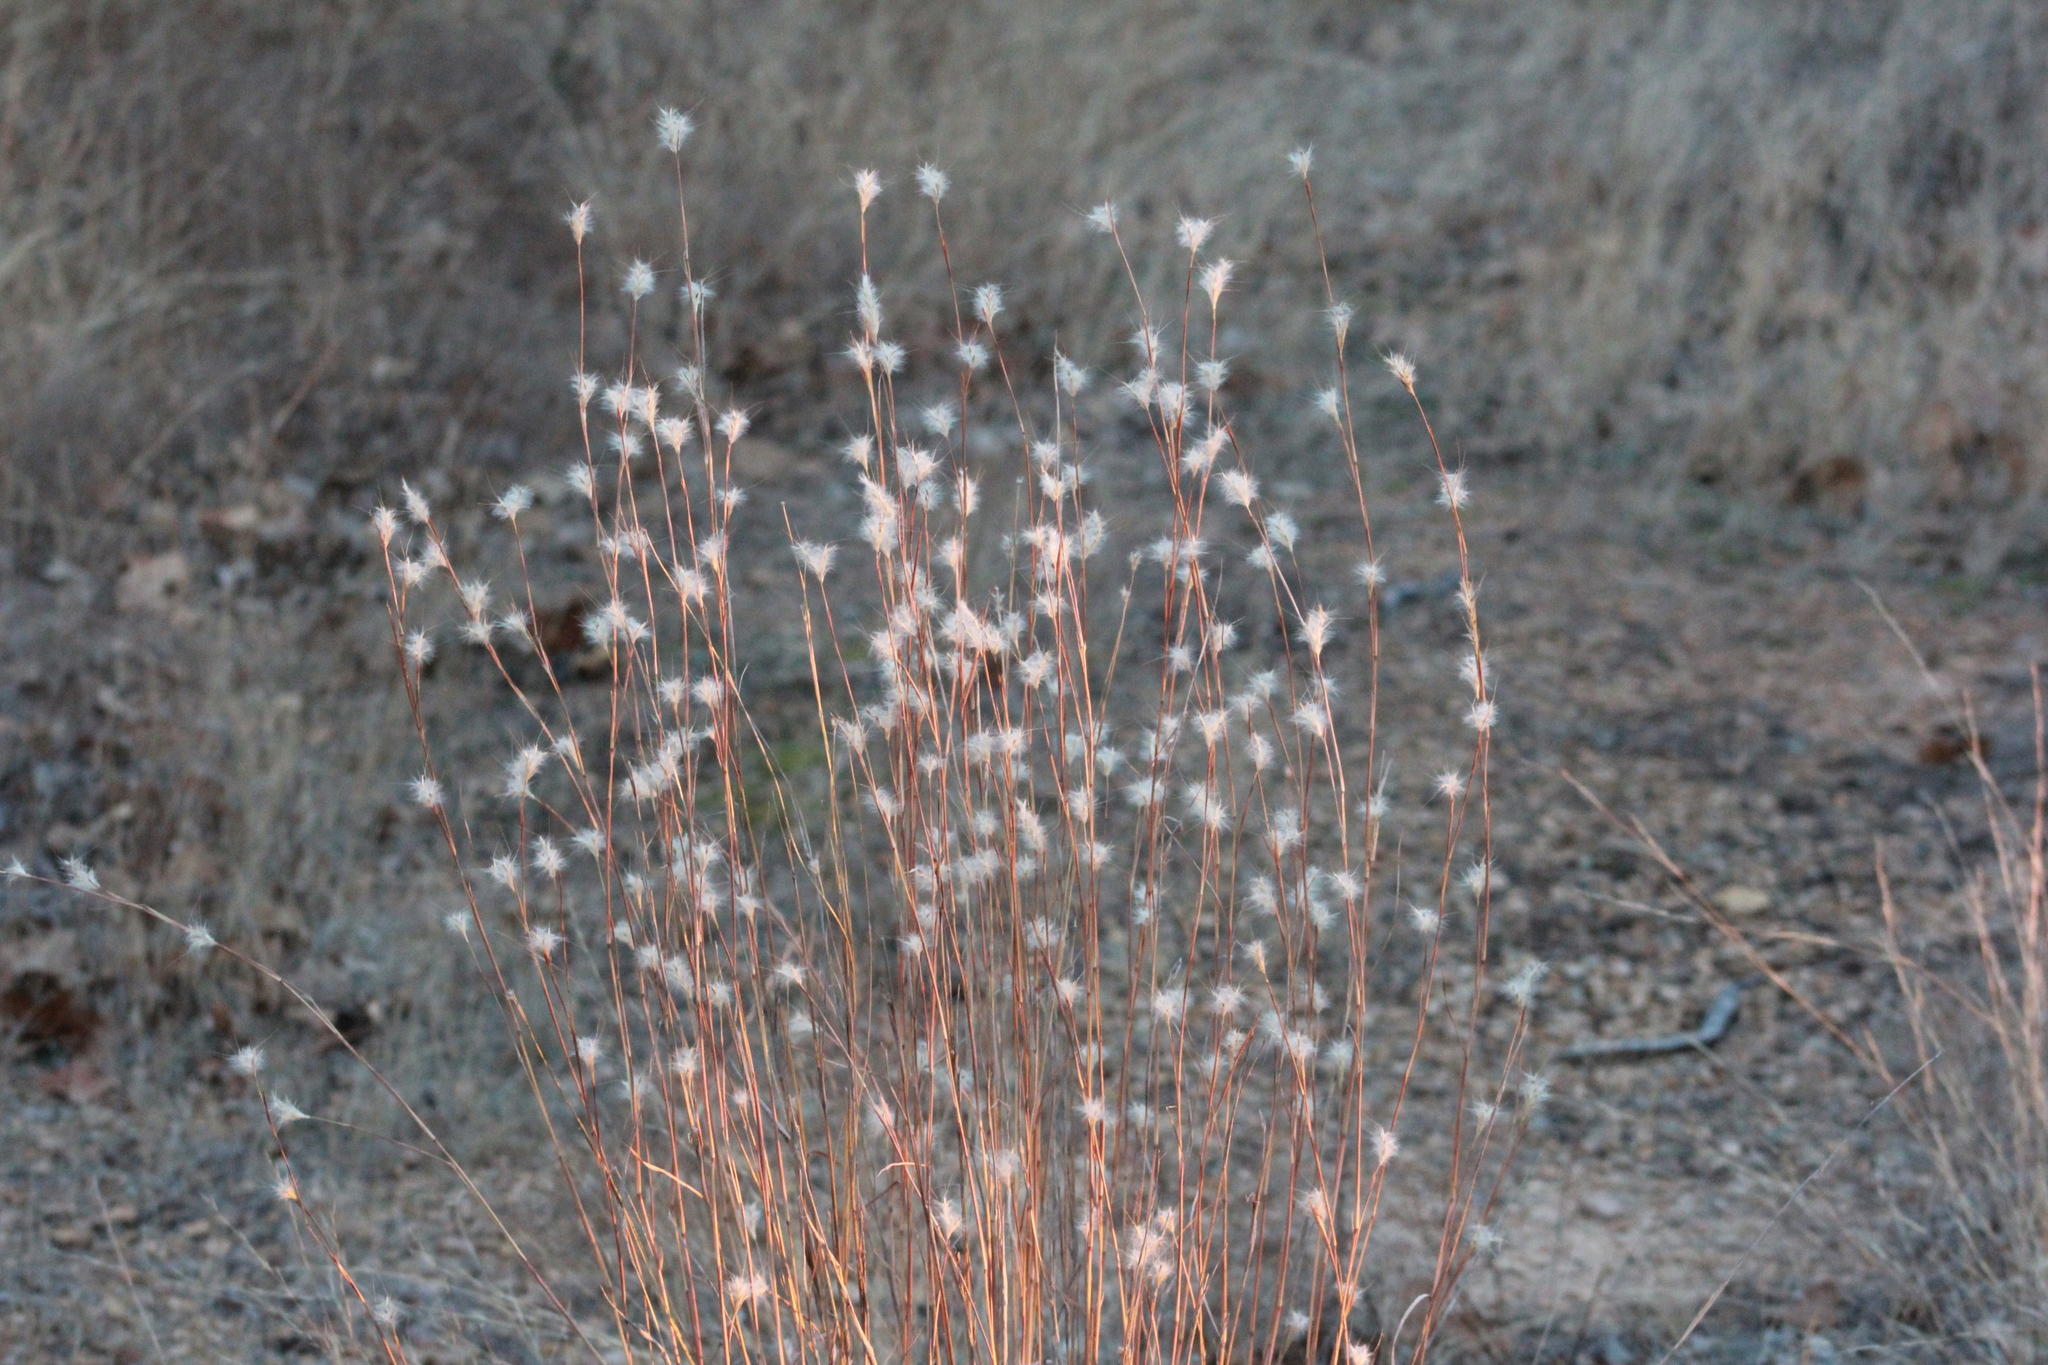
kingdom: Plantae
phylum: Tracheophyta
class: Liliopsida
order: Poales
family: Poaceae
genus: Andropogon
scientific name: Andropogon ternarius
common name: Split bluestem
